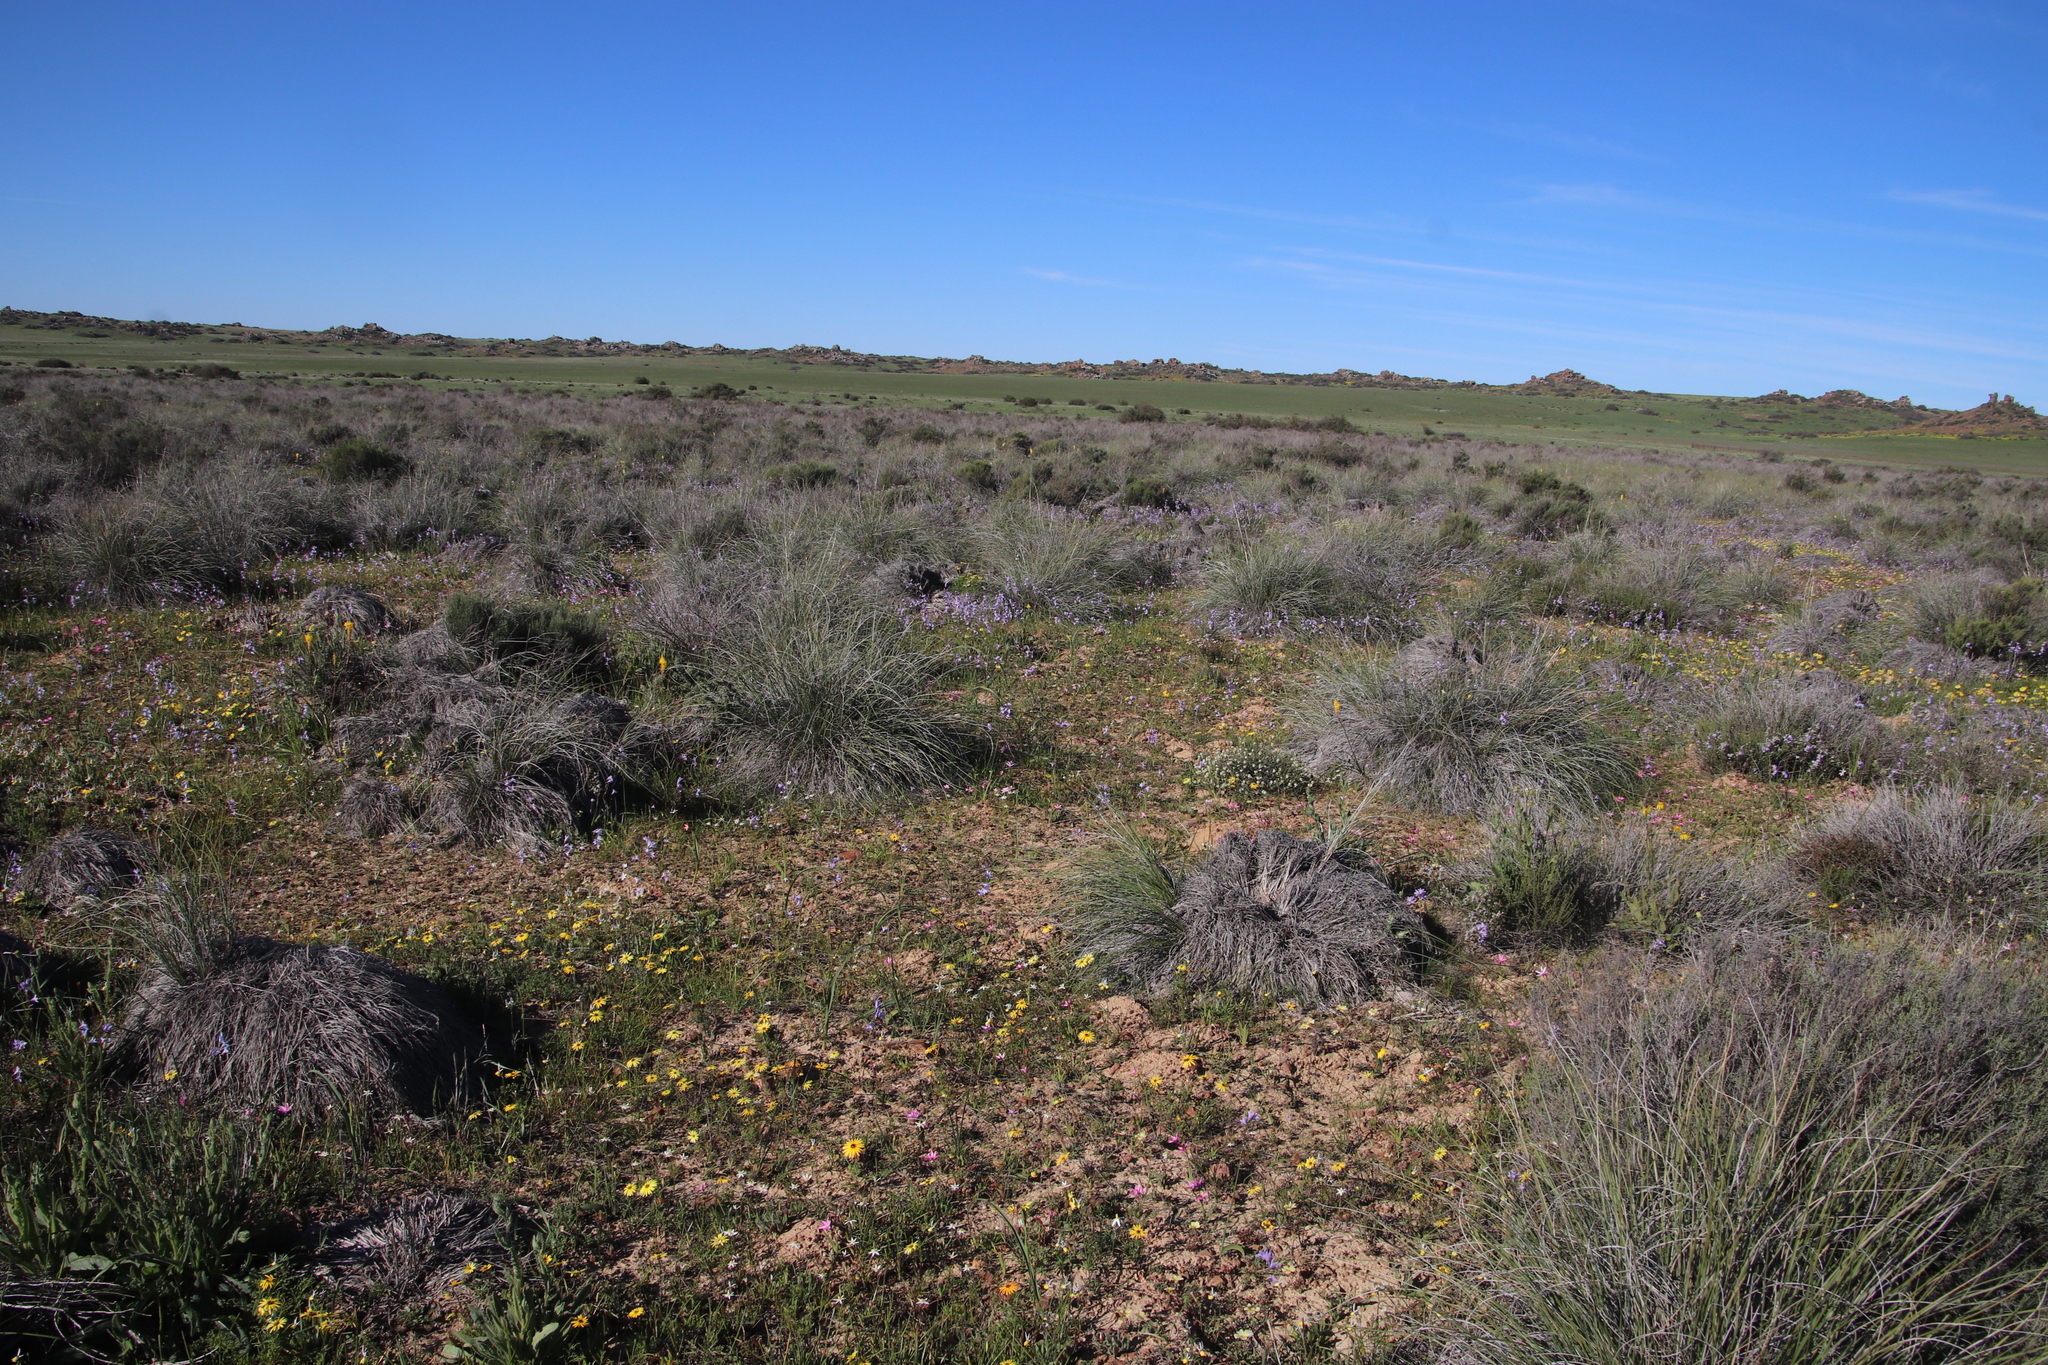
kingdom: Plantae
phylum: Tracheophyta
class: Liliopsida
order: Asparagales
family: Iridaceae
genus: Ixia
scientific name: Ixia rapunculoides
